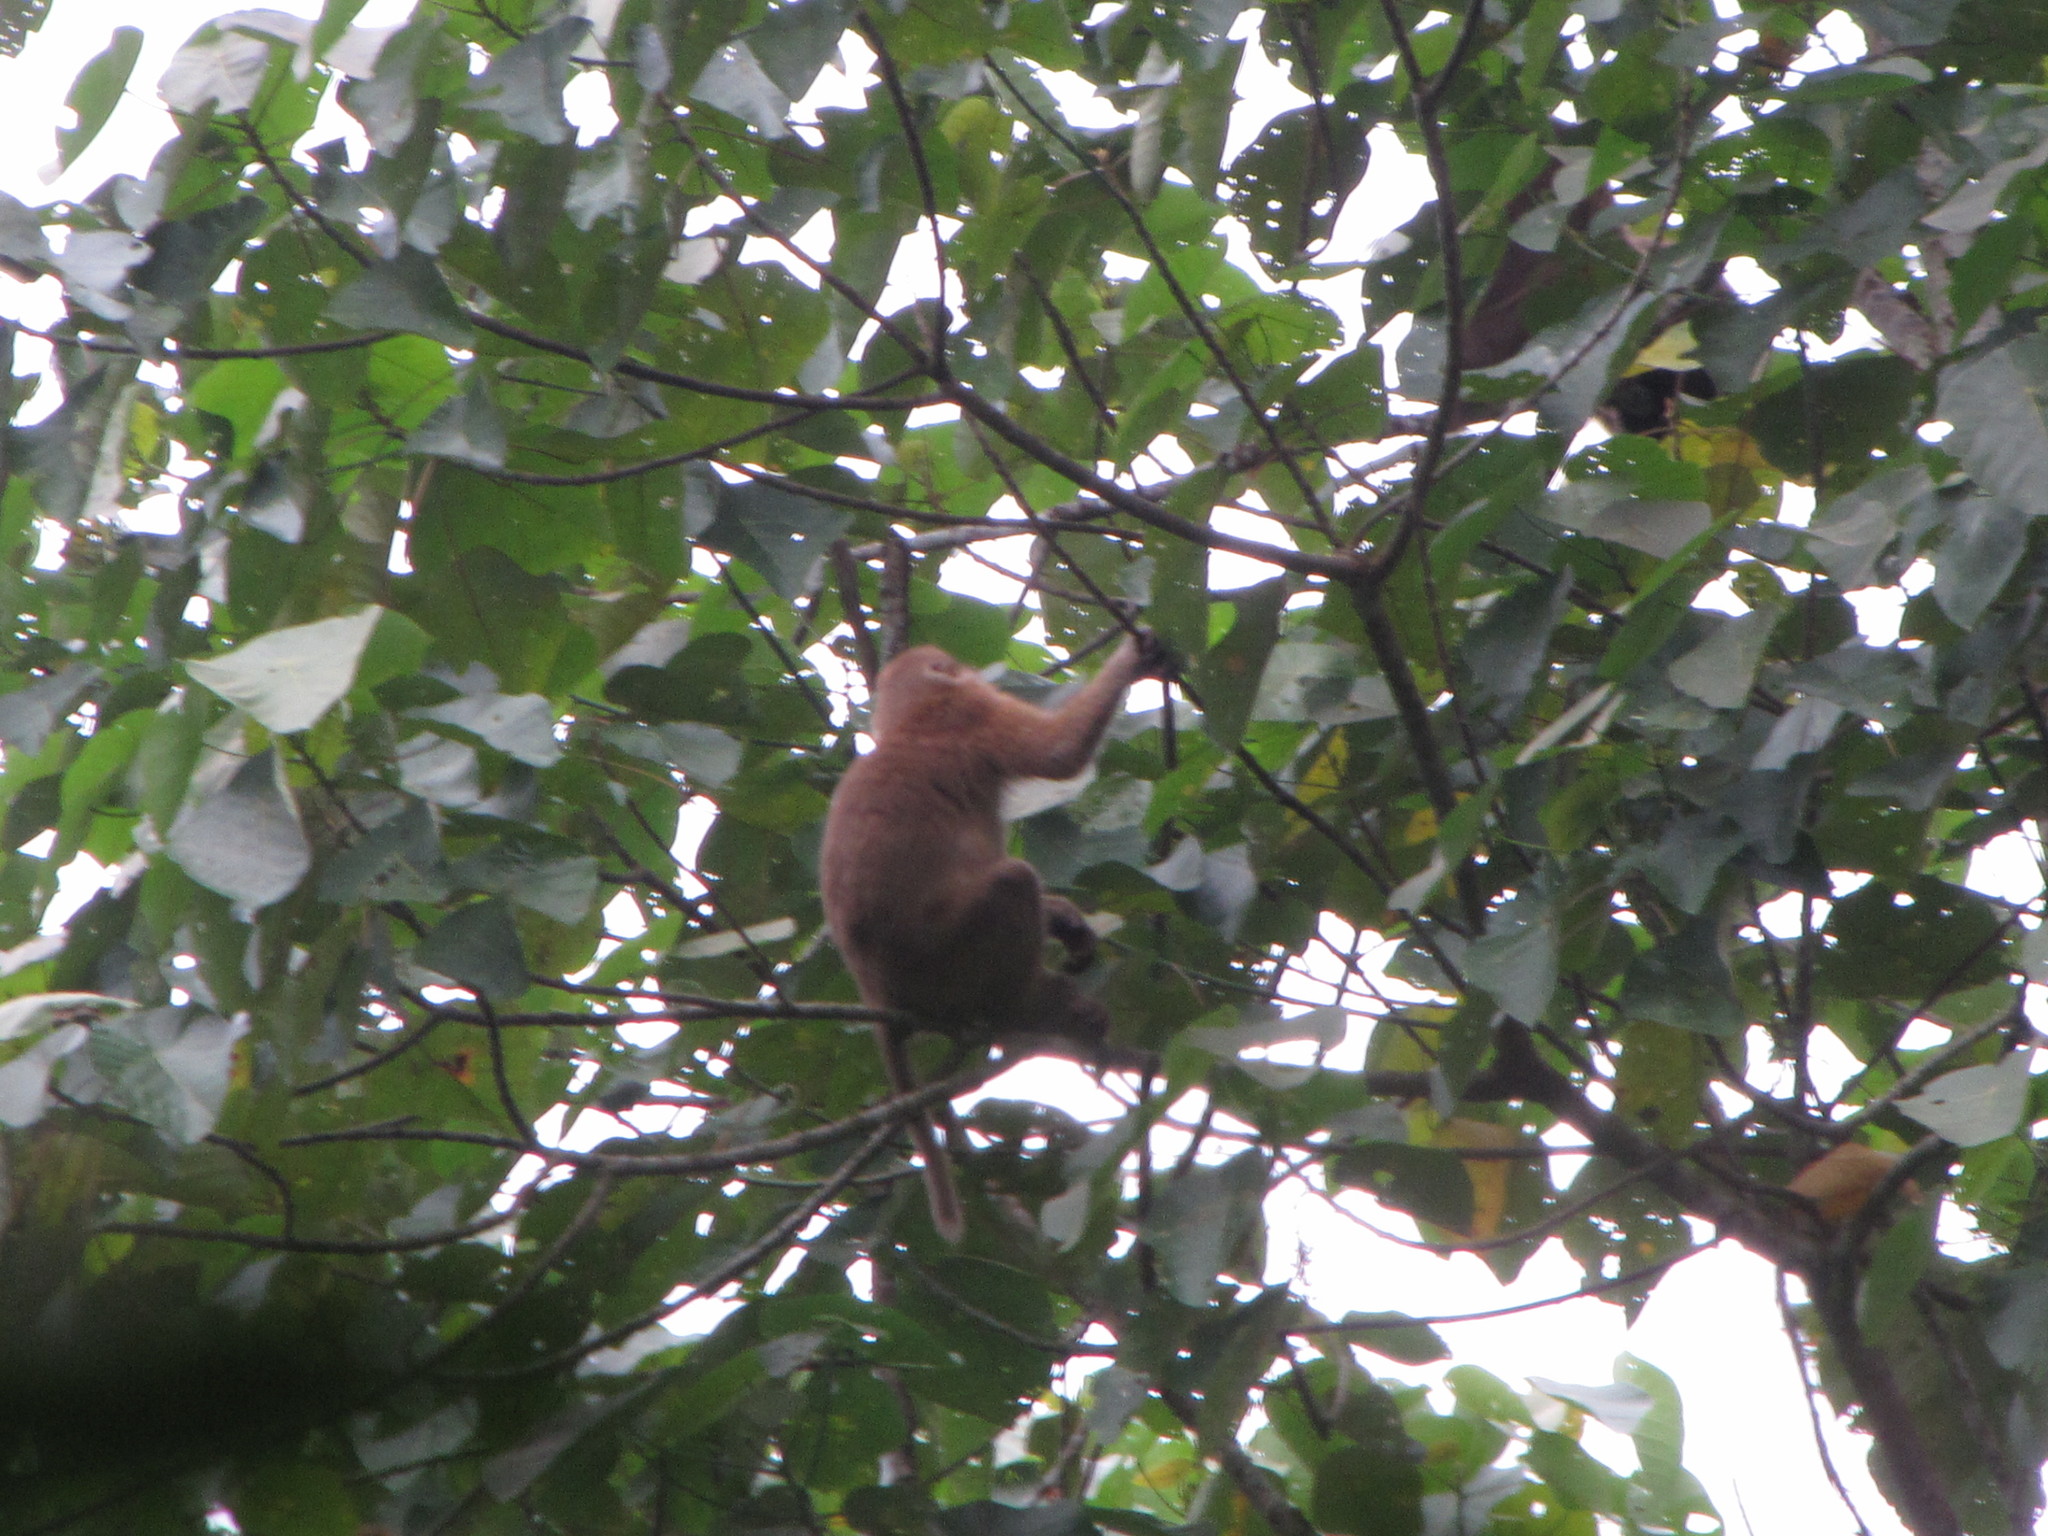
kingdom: Animalia
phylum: Chordata
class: Mammalia
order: Primates
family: Cercopithecidae
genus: Macaca
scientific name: Macaca assamensis
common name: Assam macaque
